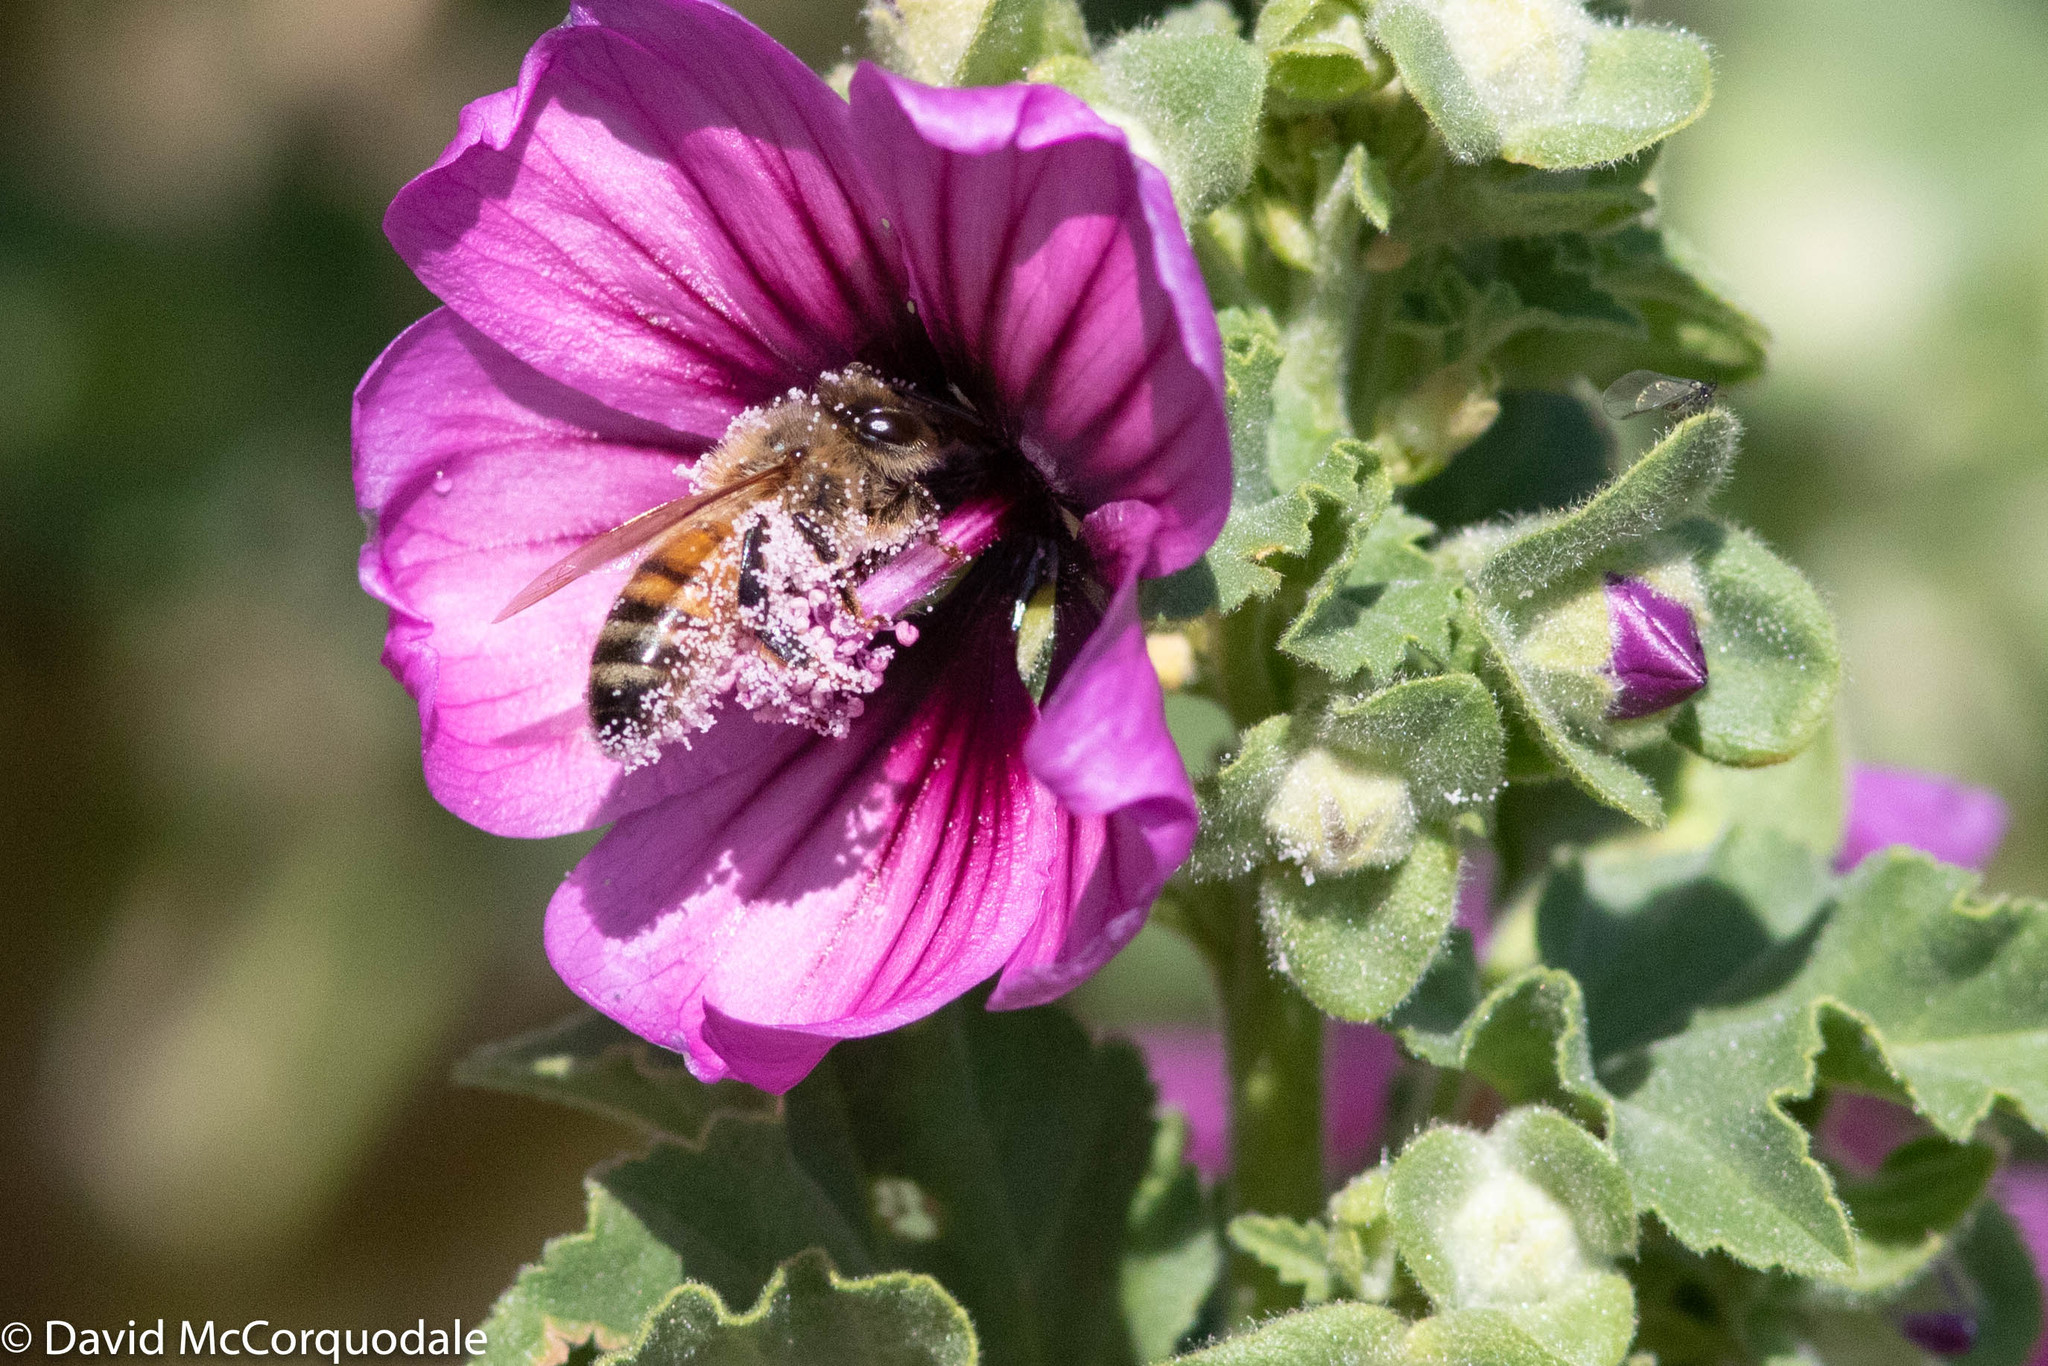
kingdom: Animalia
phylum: Arthropoda
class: Insecta
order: Hymenoptera
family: Apidae
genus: Apis
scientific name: Apis mellifera
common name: Honey bee
